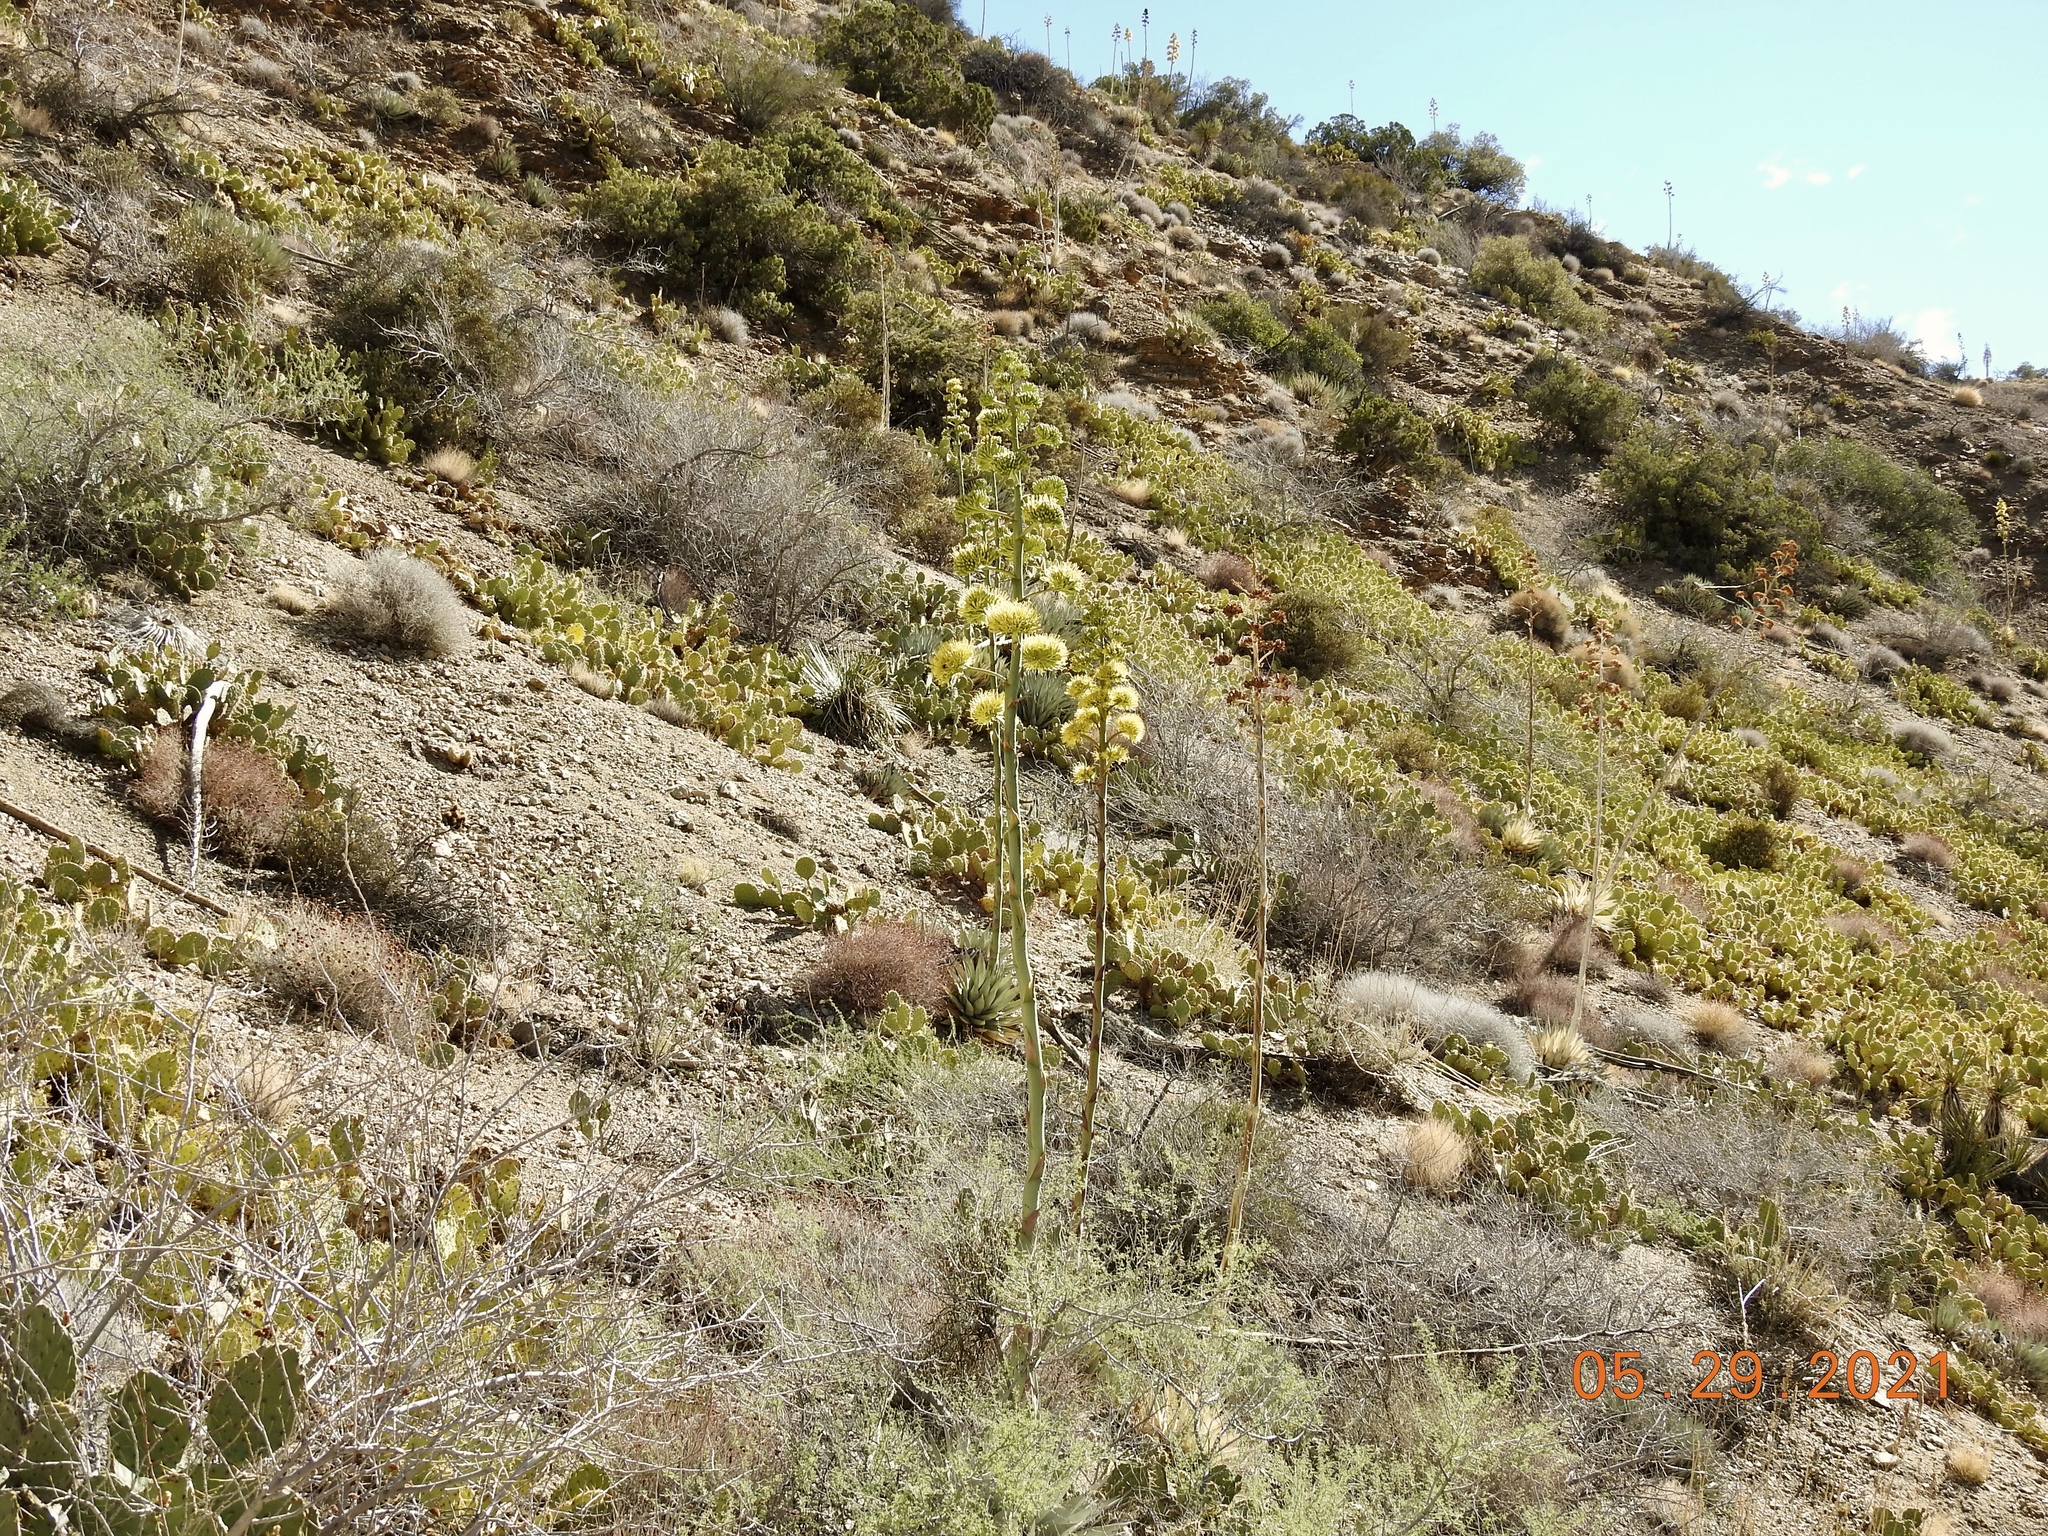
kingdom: Plantae
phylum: Tracheophyta
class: Liliopsida
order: Asparagales
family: Asparagaceae
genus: Agave
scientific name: Agave deserti
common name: Desert agave
